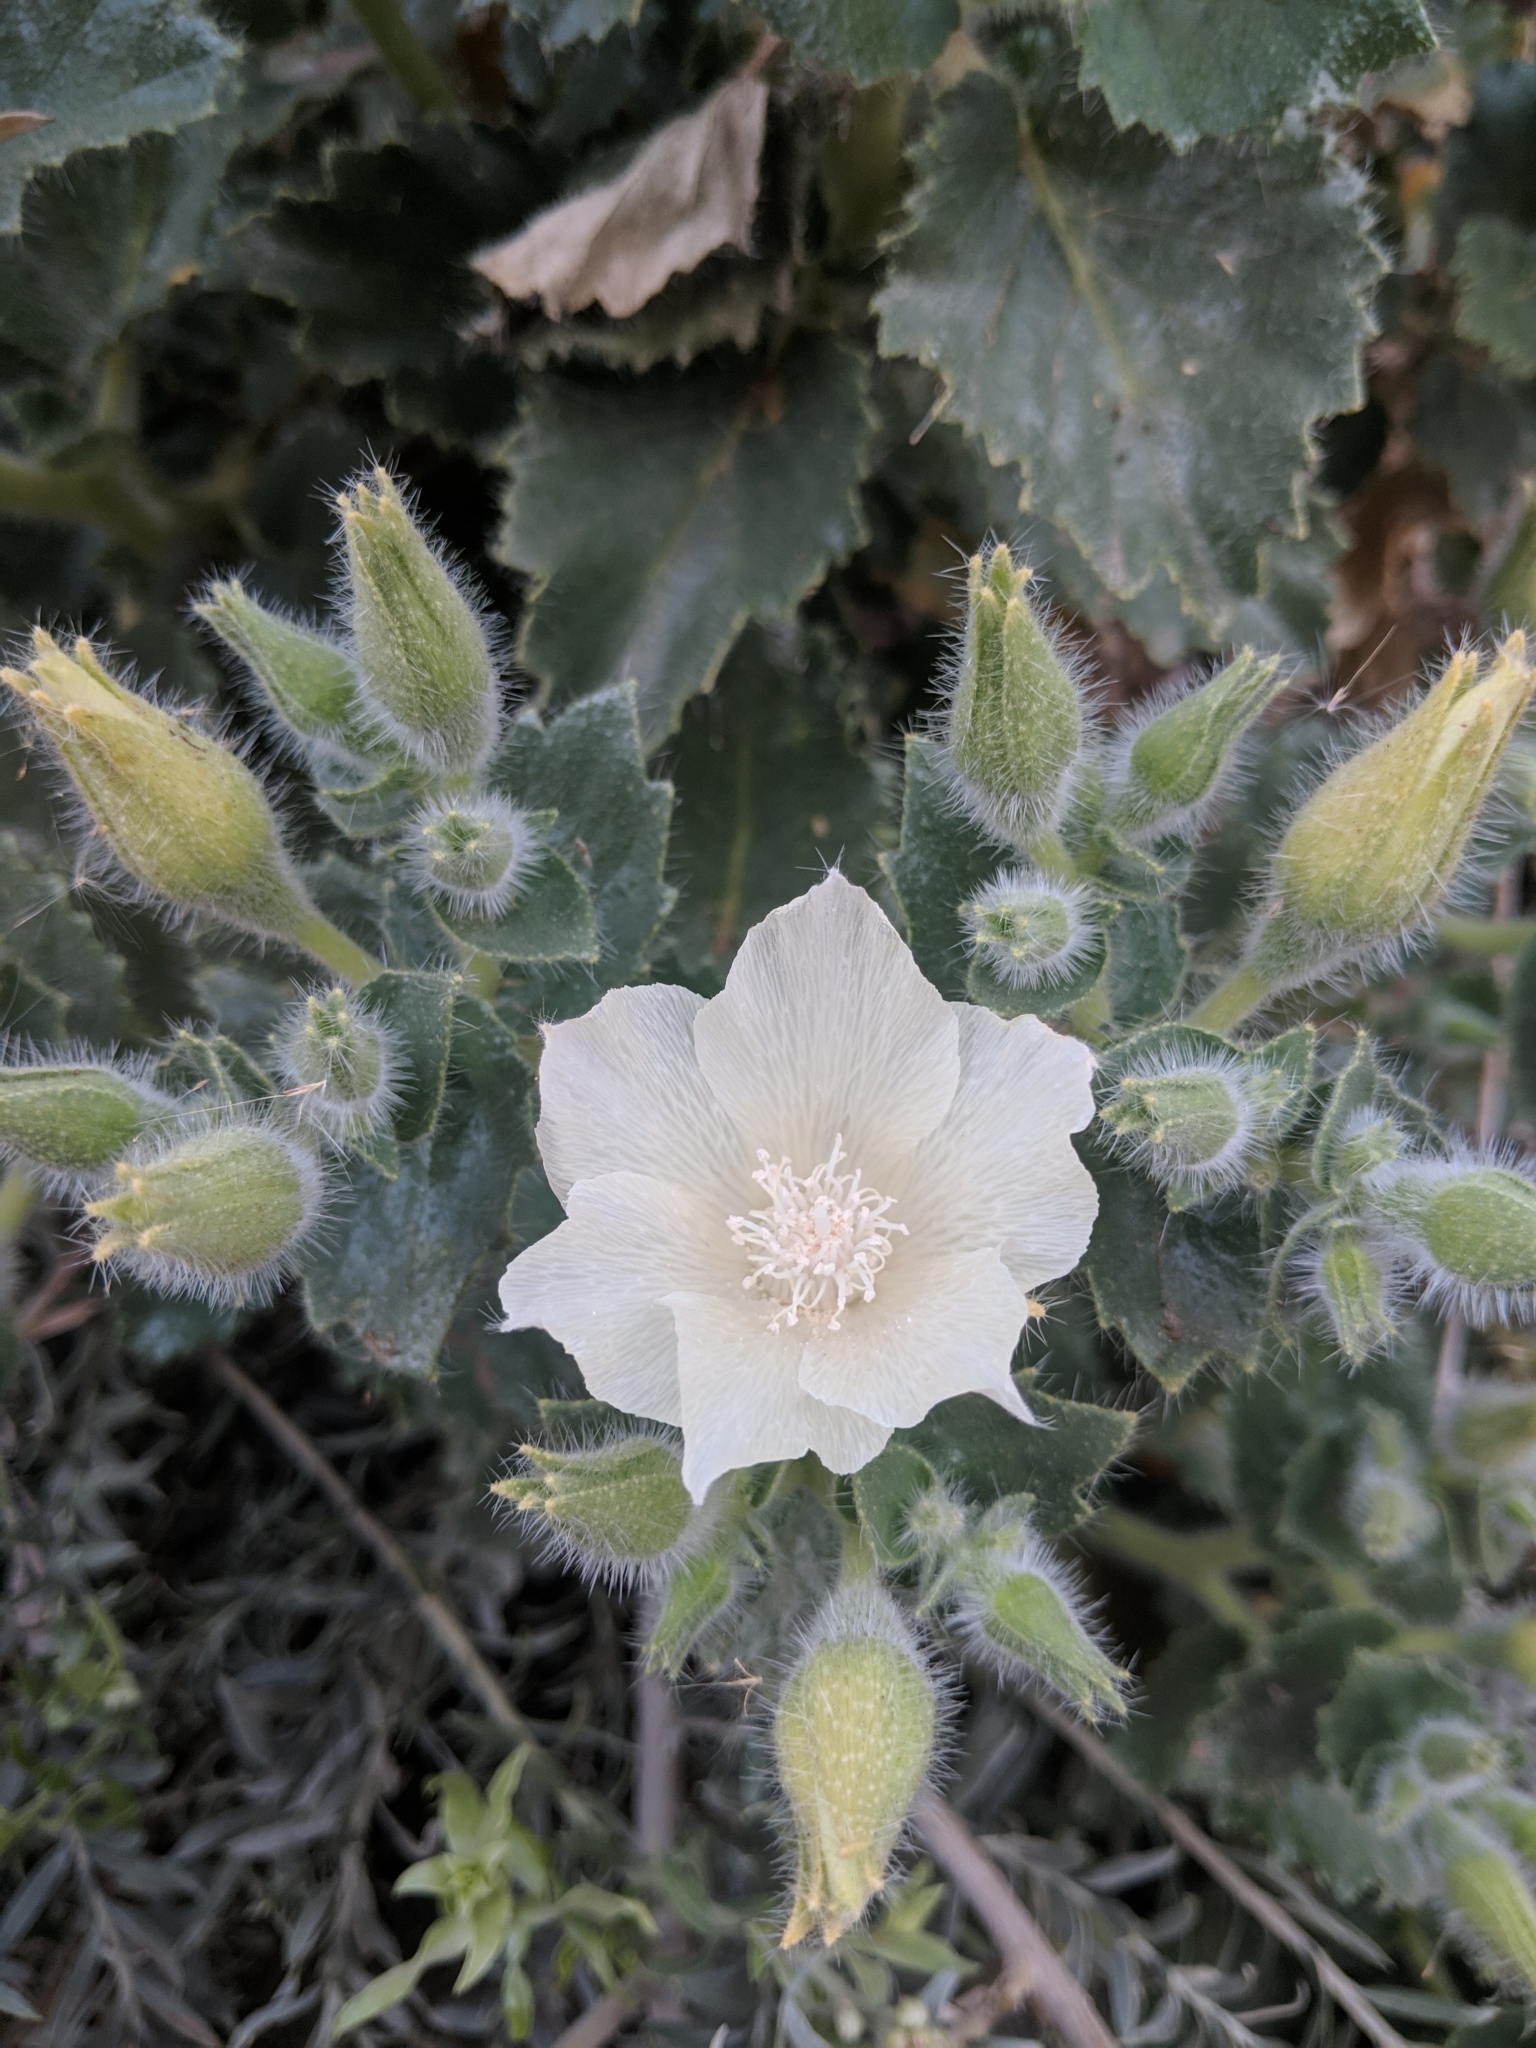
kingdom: Plantae
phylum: Tracheophyta
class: Magnoliopsida
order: Cornales
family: Loasaceae
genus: Eucnide
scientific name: Eucnide urens
